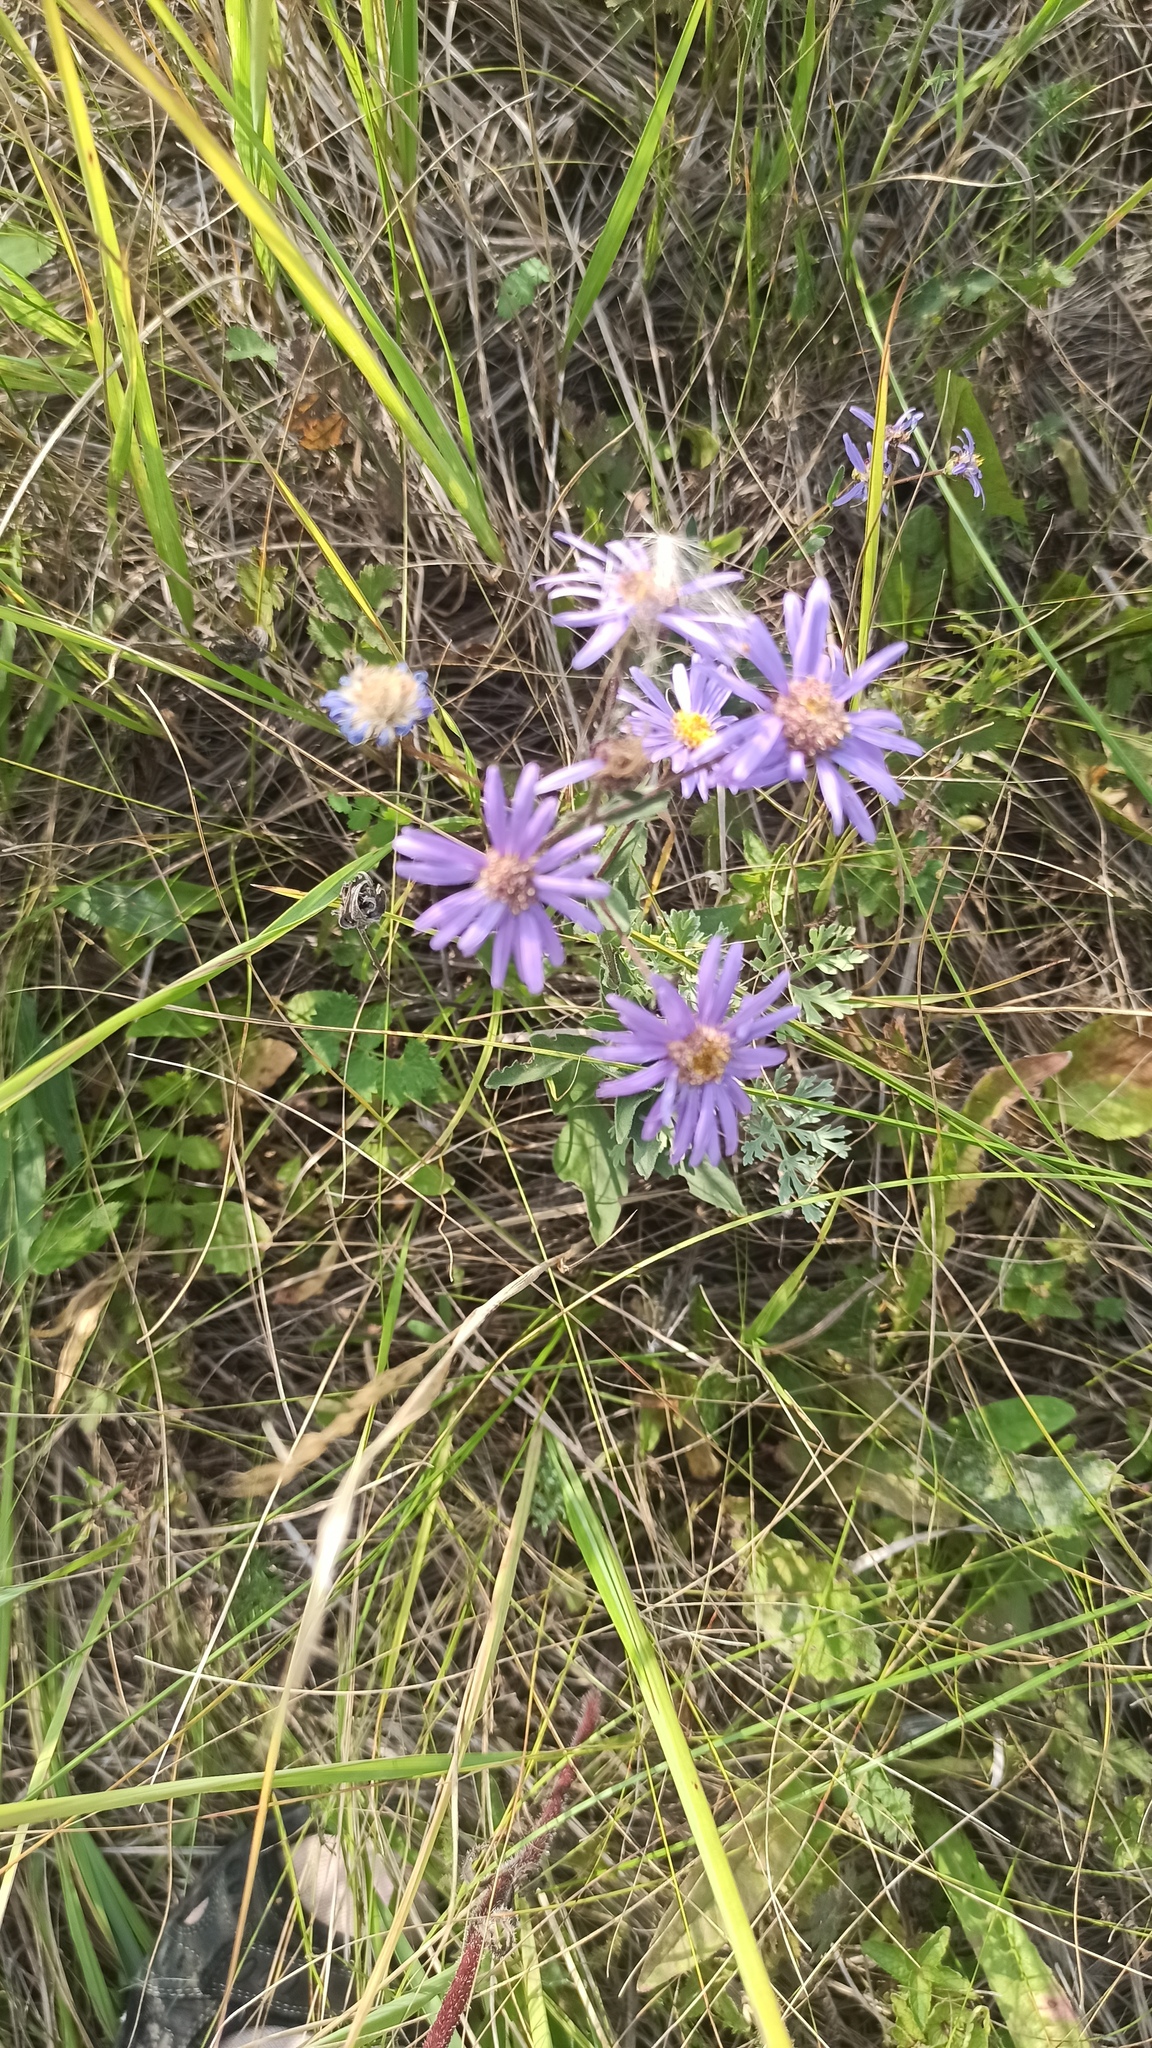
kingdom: Plantae
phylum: Tracheophyta
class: Magnoliopsida
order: Asterales
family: Asteraceae
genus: Aster
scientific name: Aster amellus
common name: European michaelmas daisy
